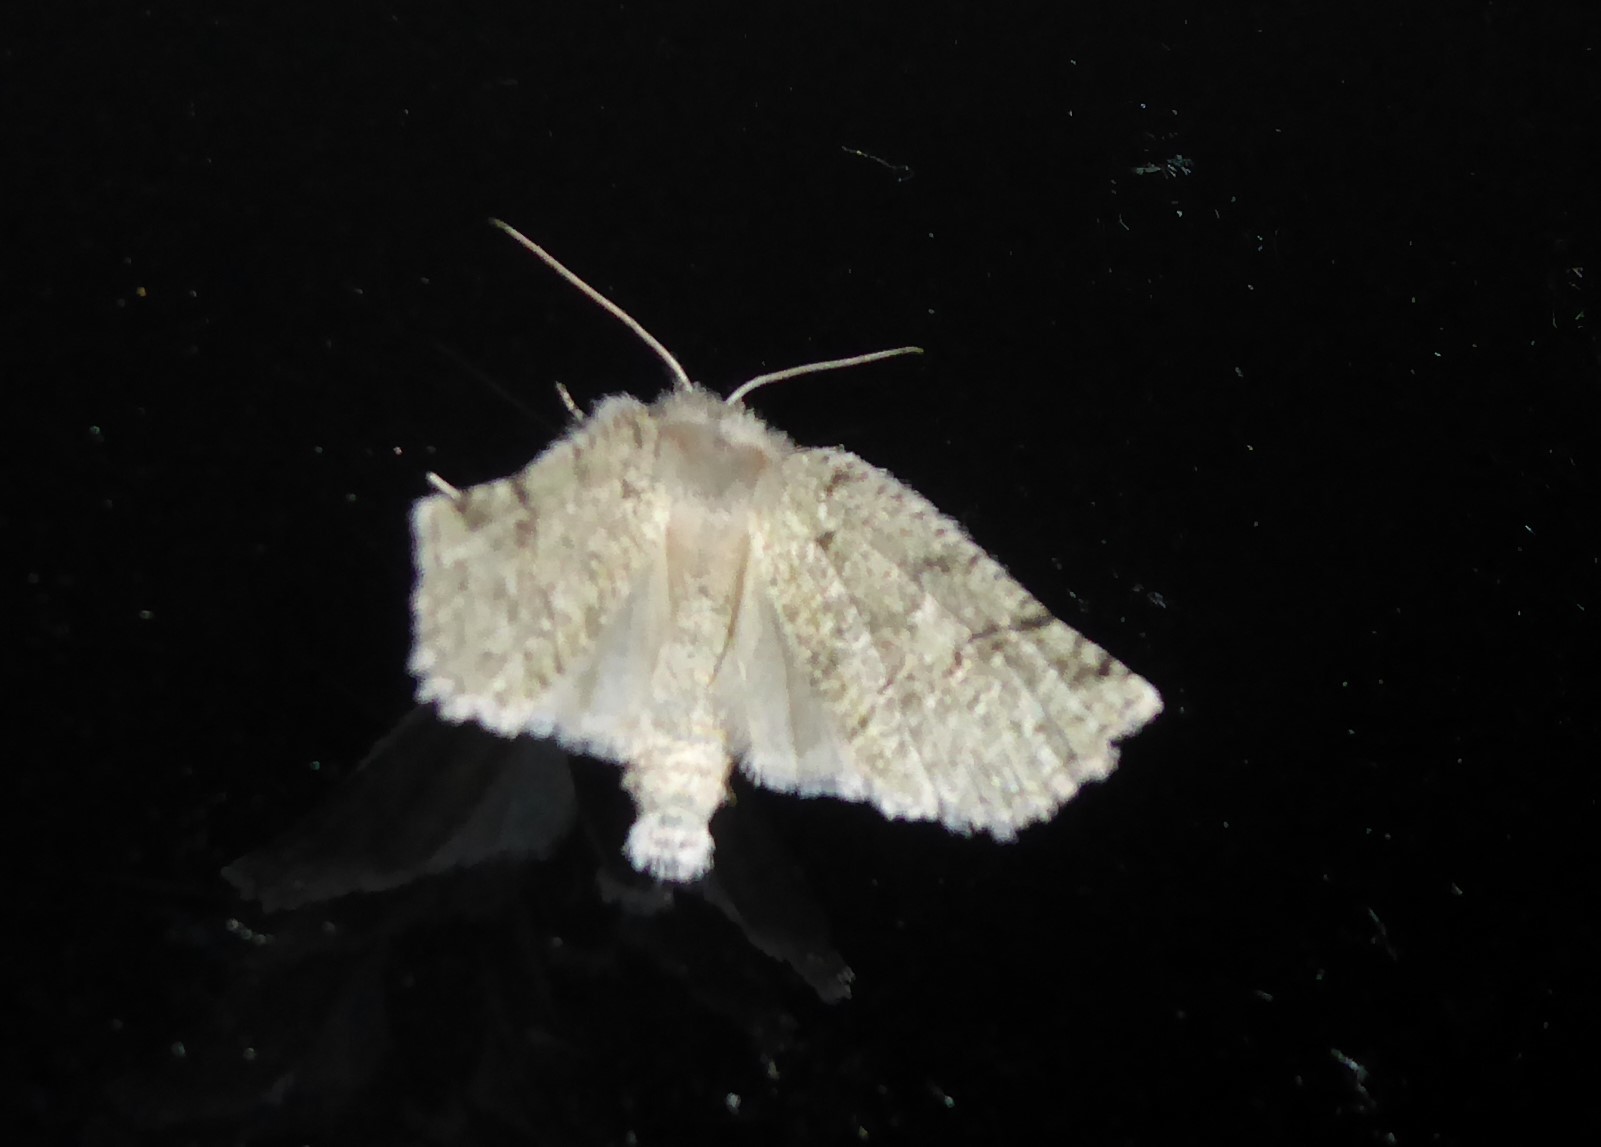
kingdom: Animalia
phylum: Arthropoda
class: Insecta
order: Lepidoptera
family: Geometridae
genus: Declana
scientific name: Declana floccosa
